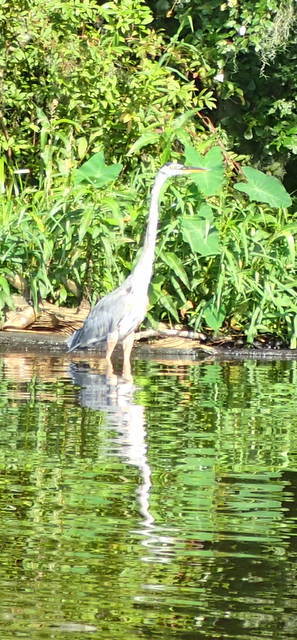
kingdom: Animalia
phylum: Chordata
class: Aves
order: Pelecaniformes
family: Ardeidae
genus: Ardea
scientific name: Ardea herodias
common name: Great blue heron
